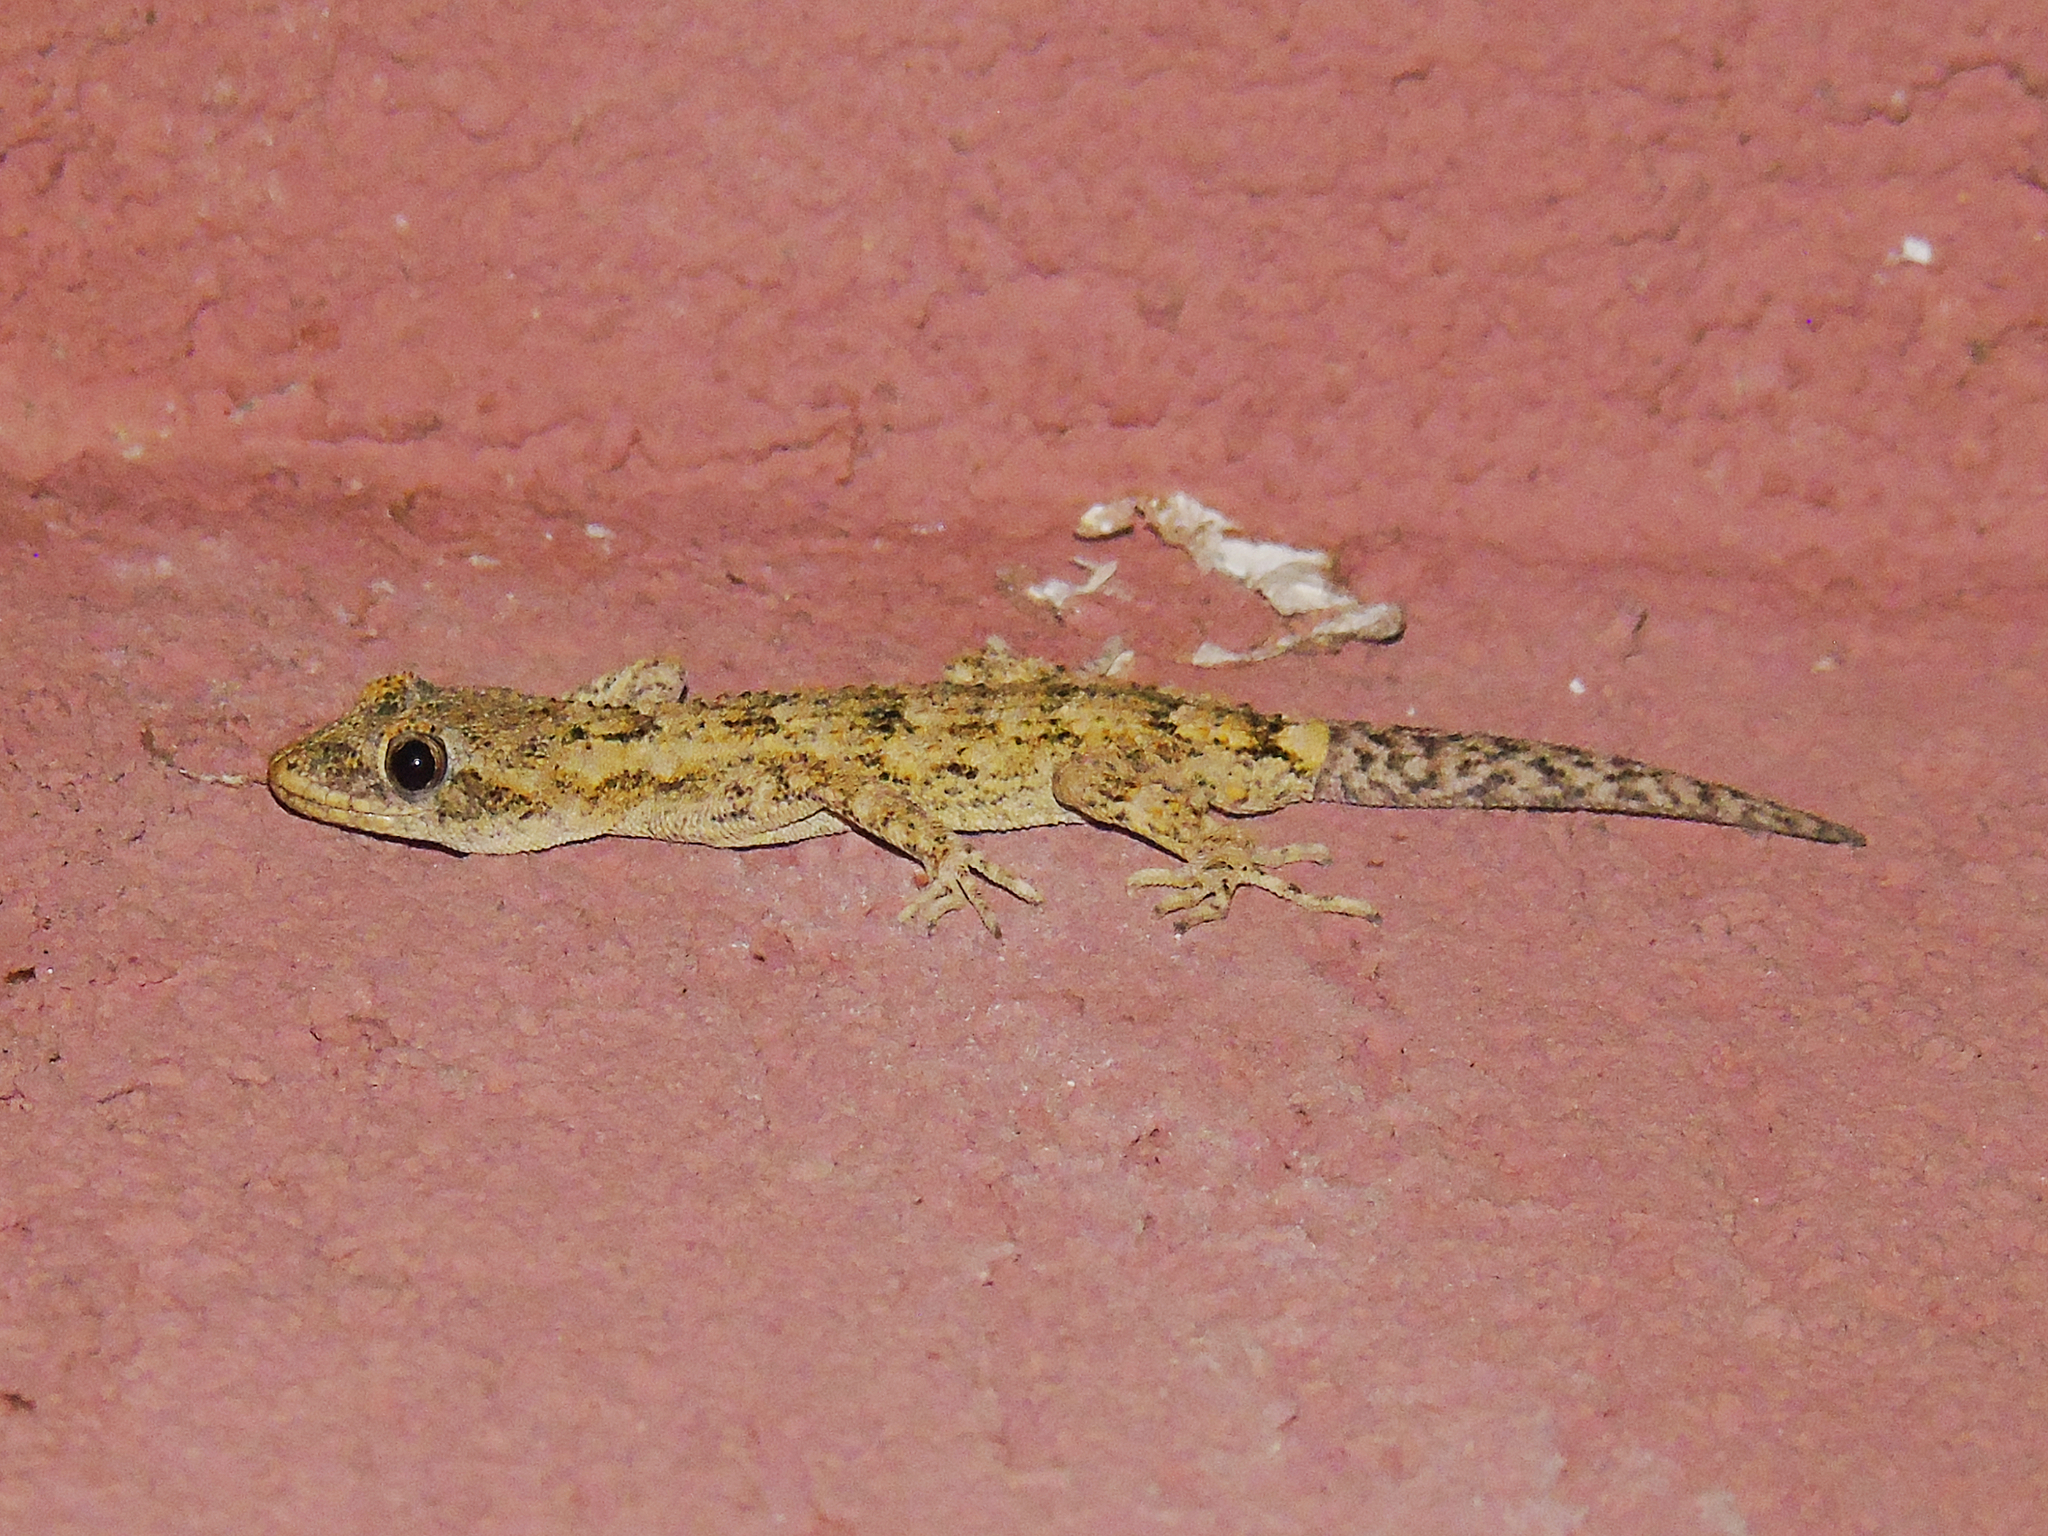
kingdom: Animalia
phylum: Chordata
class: Squamata
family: Gekkonidae
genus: Mediodactylus
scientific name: Mediodactylus danilewskii
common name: Bulgarian bent-toed gecko
